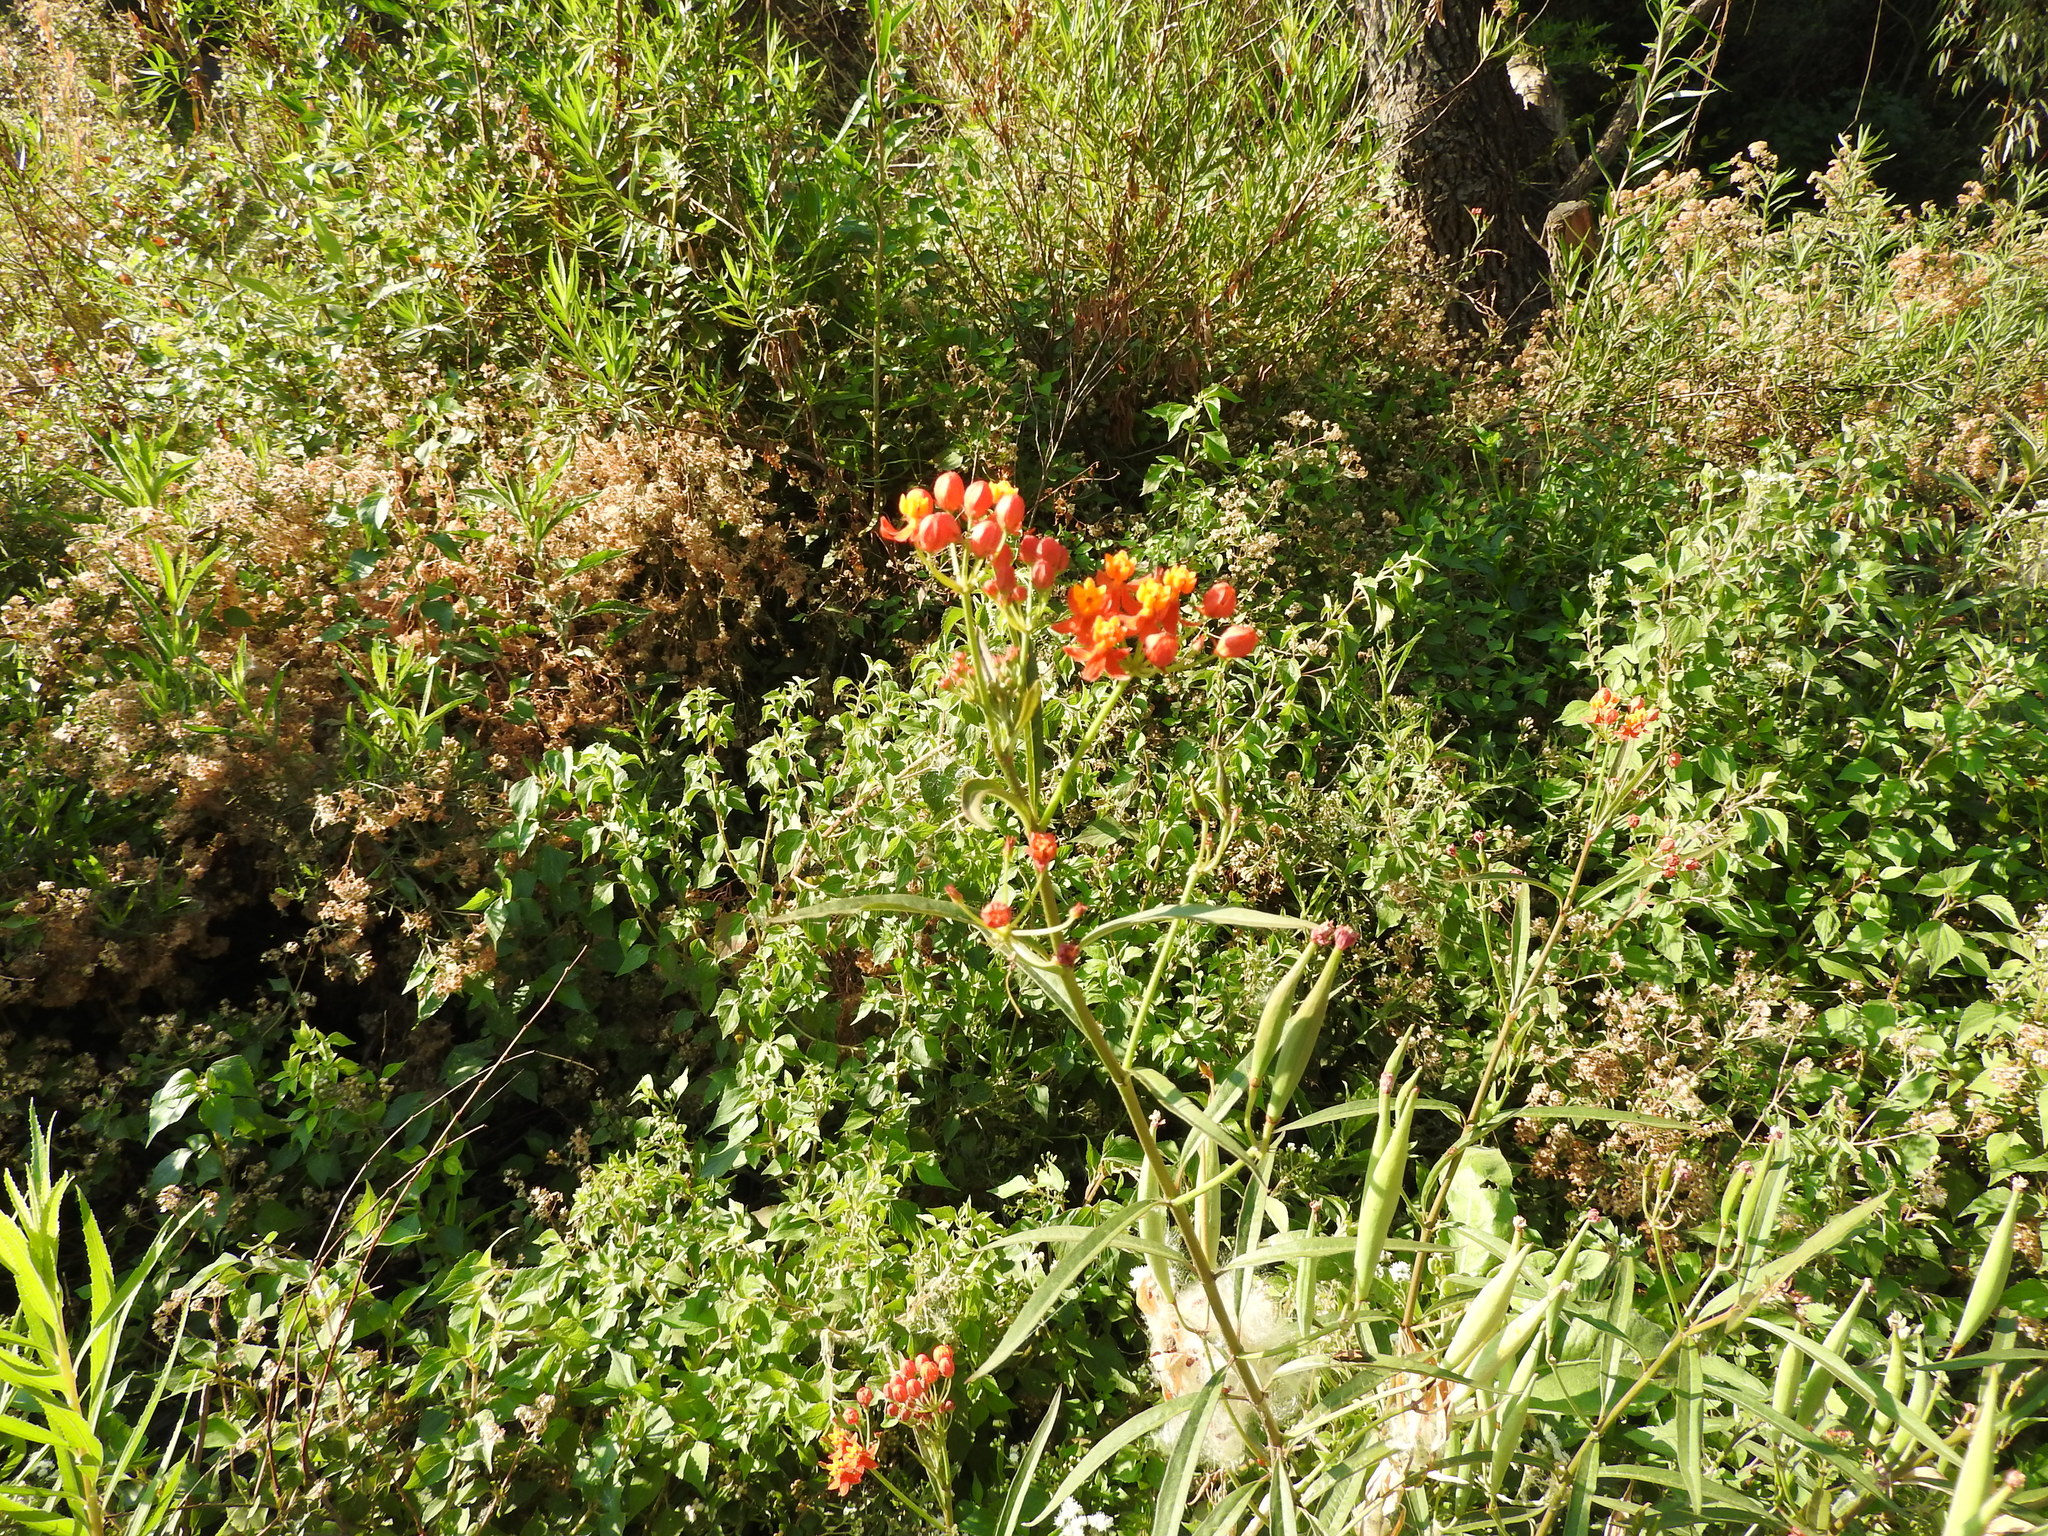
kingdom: Plantae
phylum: Tracheophyta
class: Magnoliopsida
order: Gentianales
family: Apocynaceae
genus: Asclepias
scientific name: Asclepias curassavica
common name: Bloodflower
